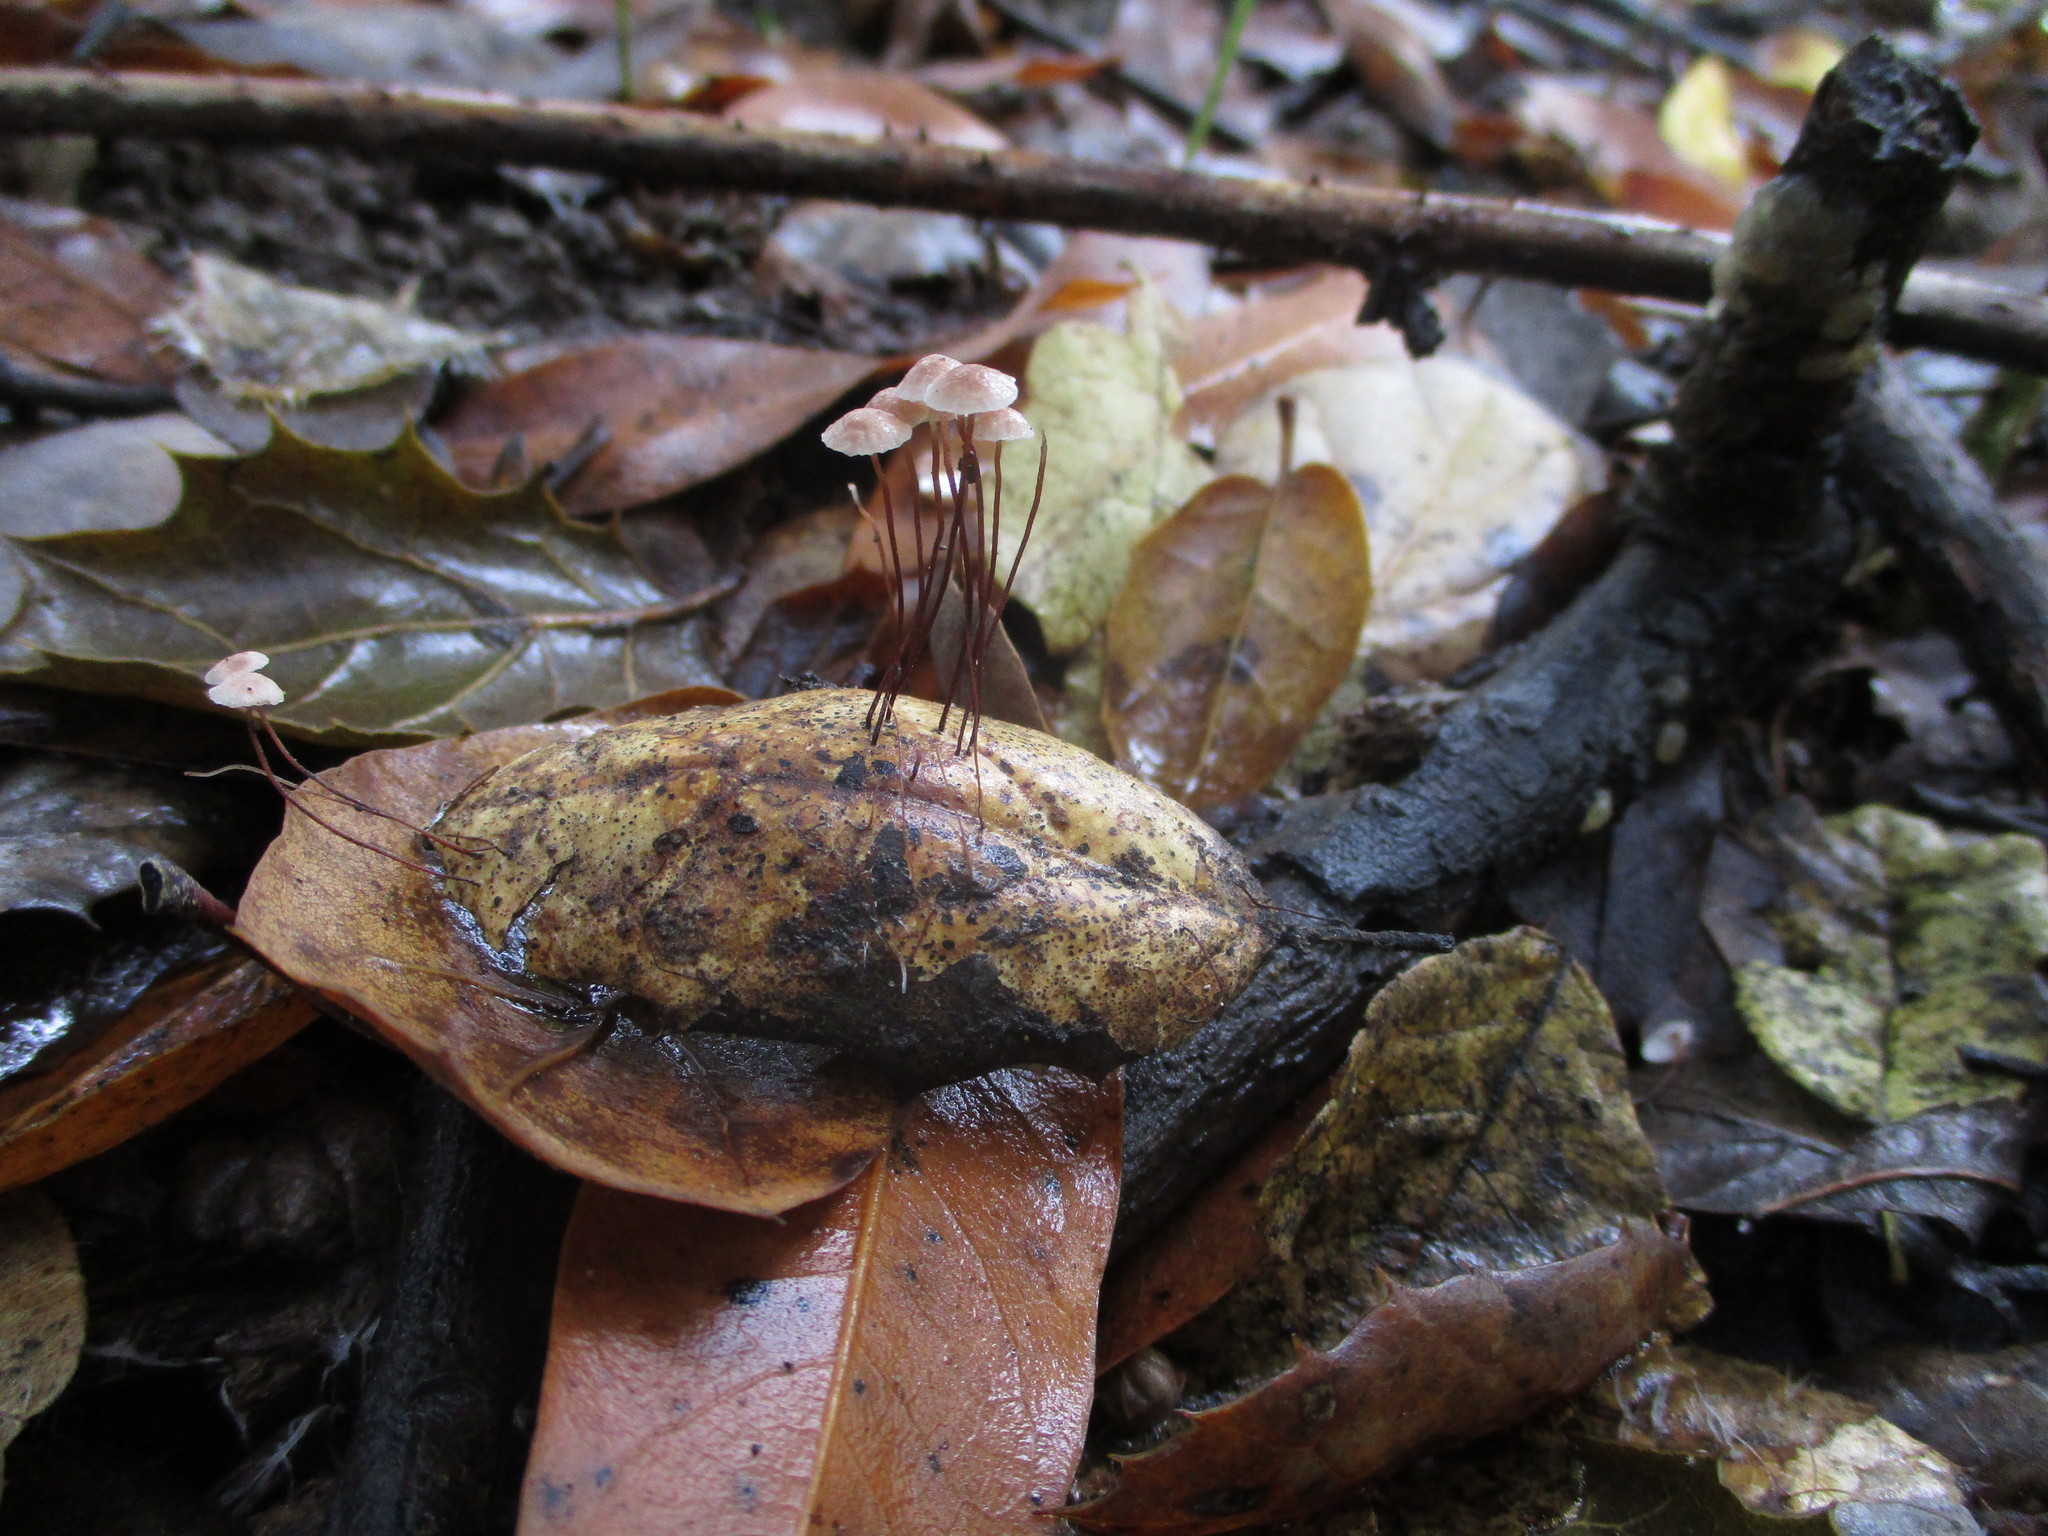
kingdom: Fungi
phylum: Basidiomycota
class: Agaricomycetes
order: Agaricales
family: Omphalotaceae
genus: Collybiopsis
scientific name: Collybiopsis quercophila
